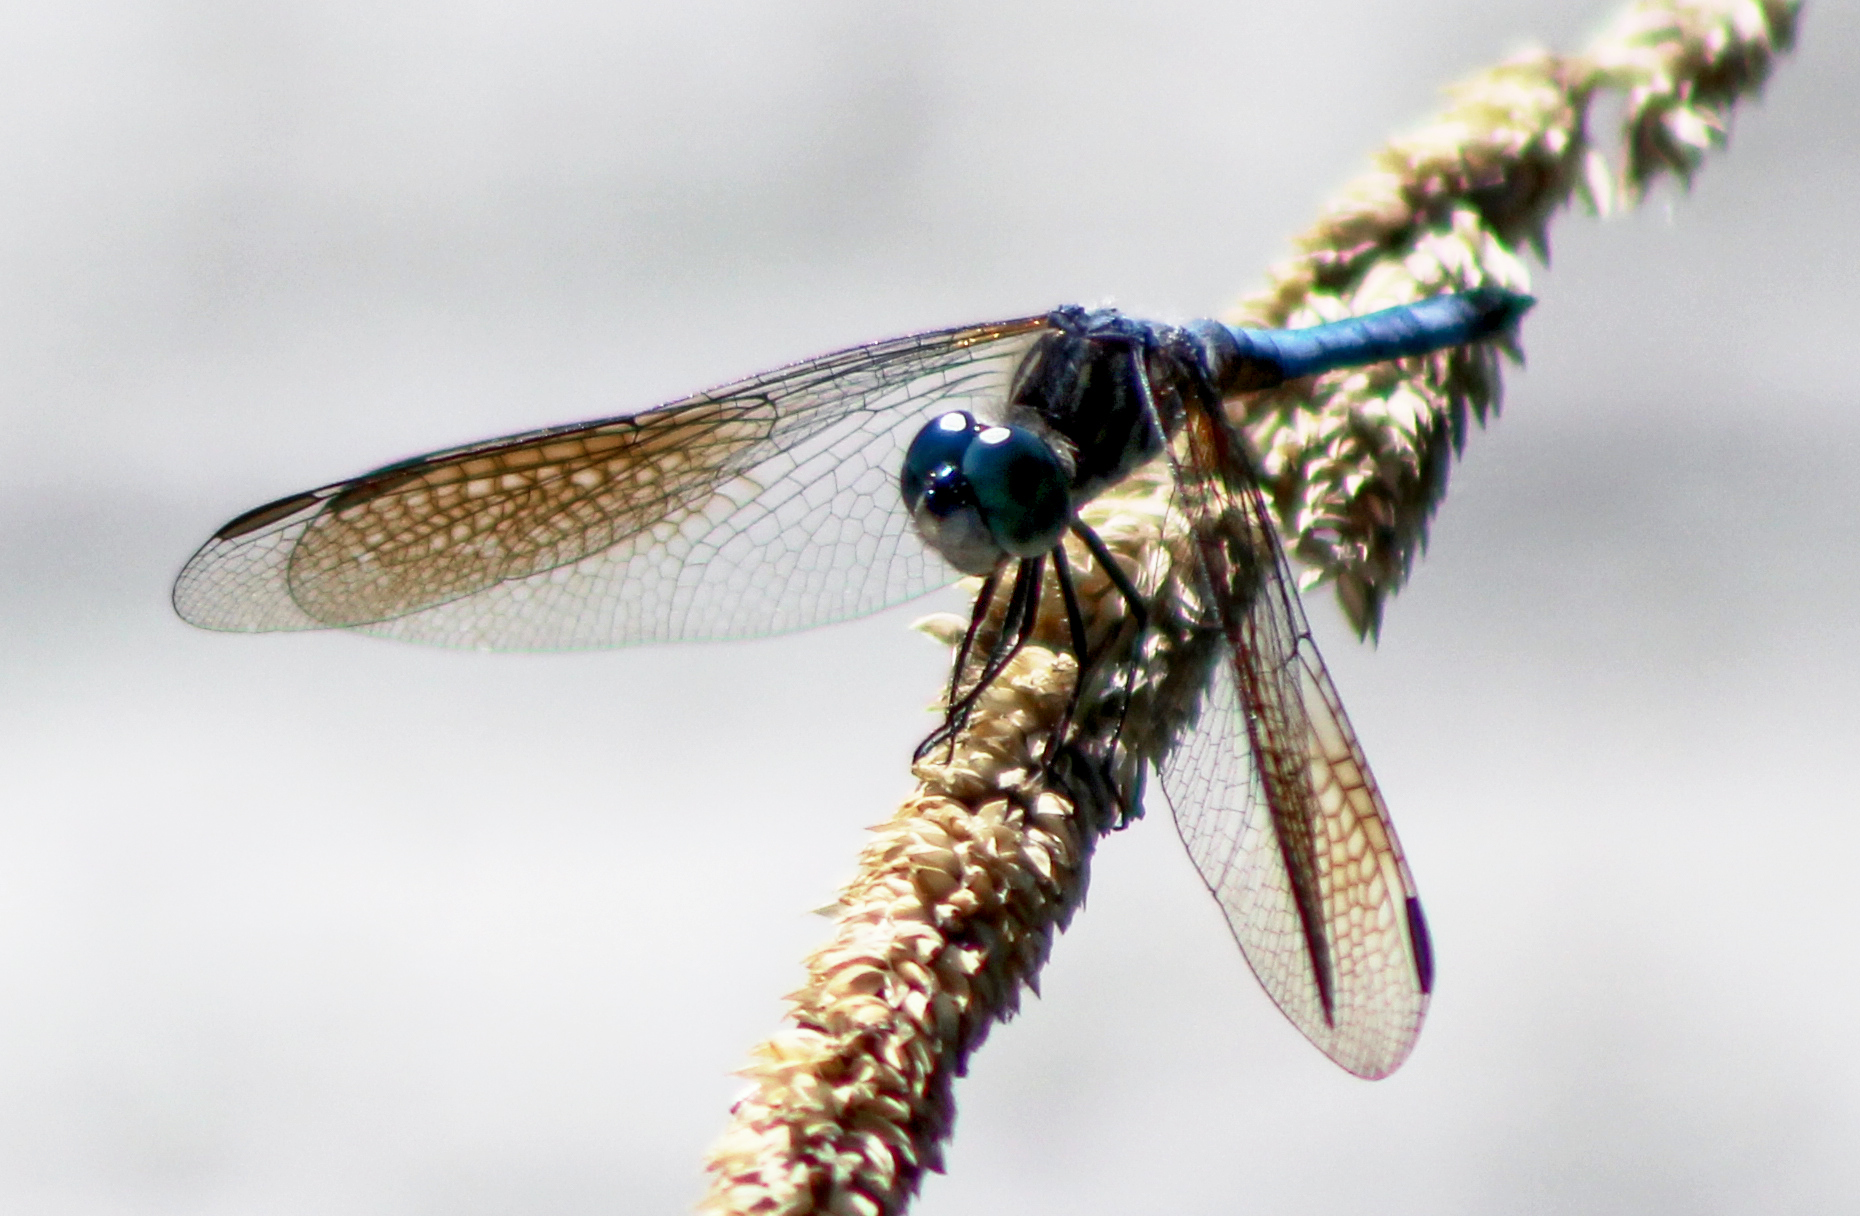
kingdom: Animalia
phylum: Arthropoda
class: Insecta
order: Odonata
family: Libellulidae
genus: Pachydiplax
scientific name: Pachydiplax longipennis
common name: Blue dasher
